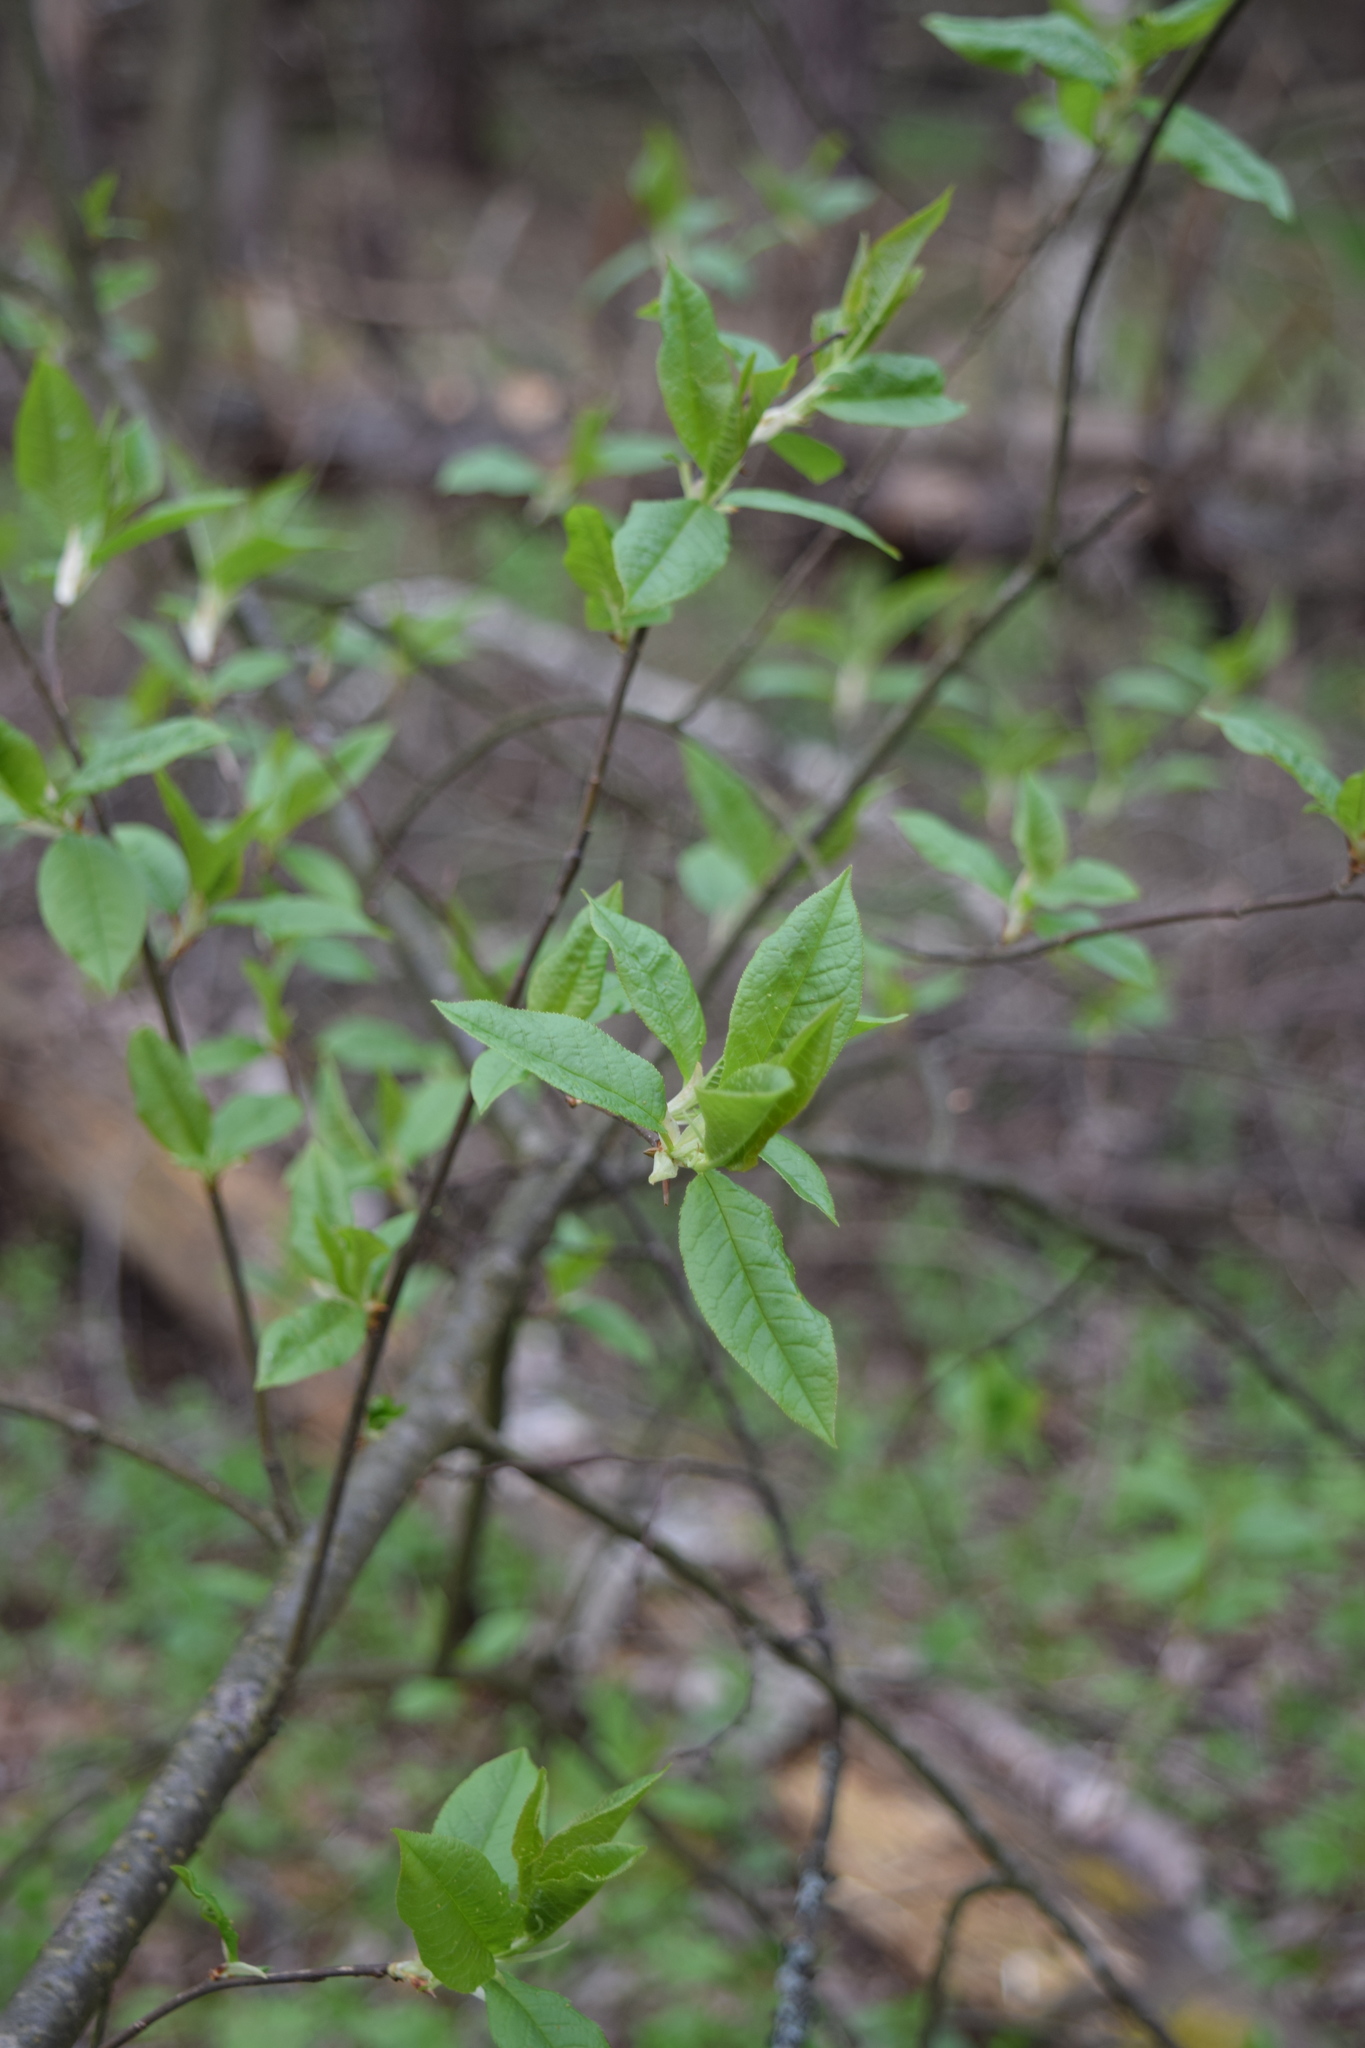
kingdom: Plantae
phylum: Tracheophyta
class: Magnoliopsida
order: Rosales
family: Rosaceae
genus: Prunus
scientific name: Prunus padus
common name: Bird cherry
